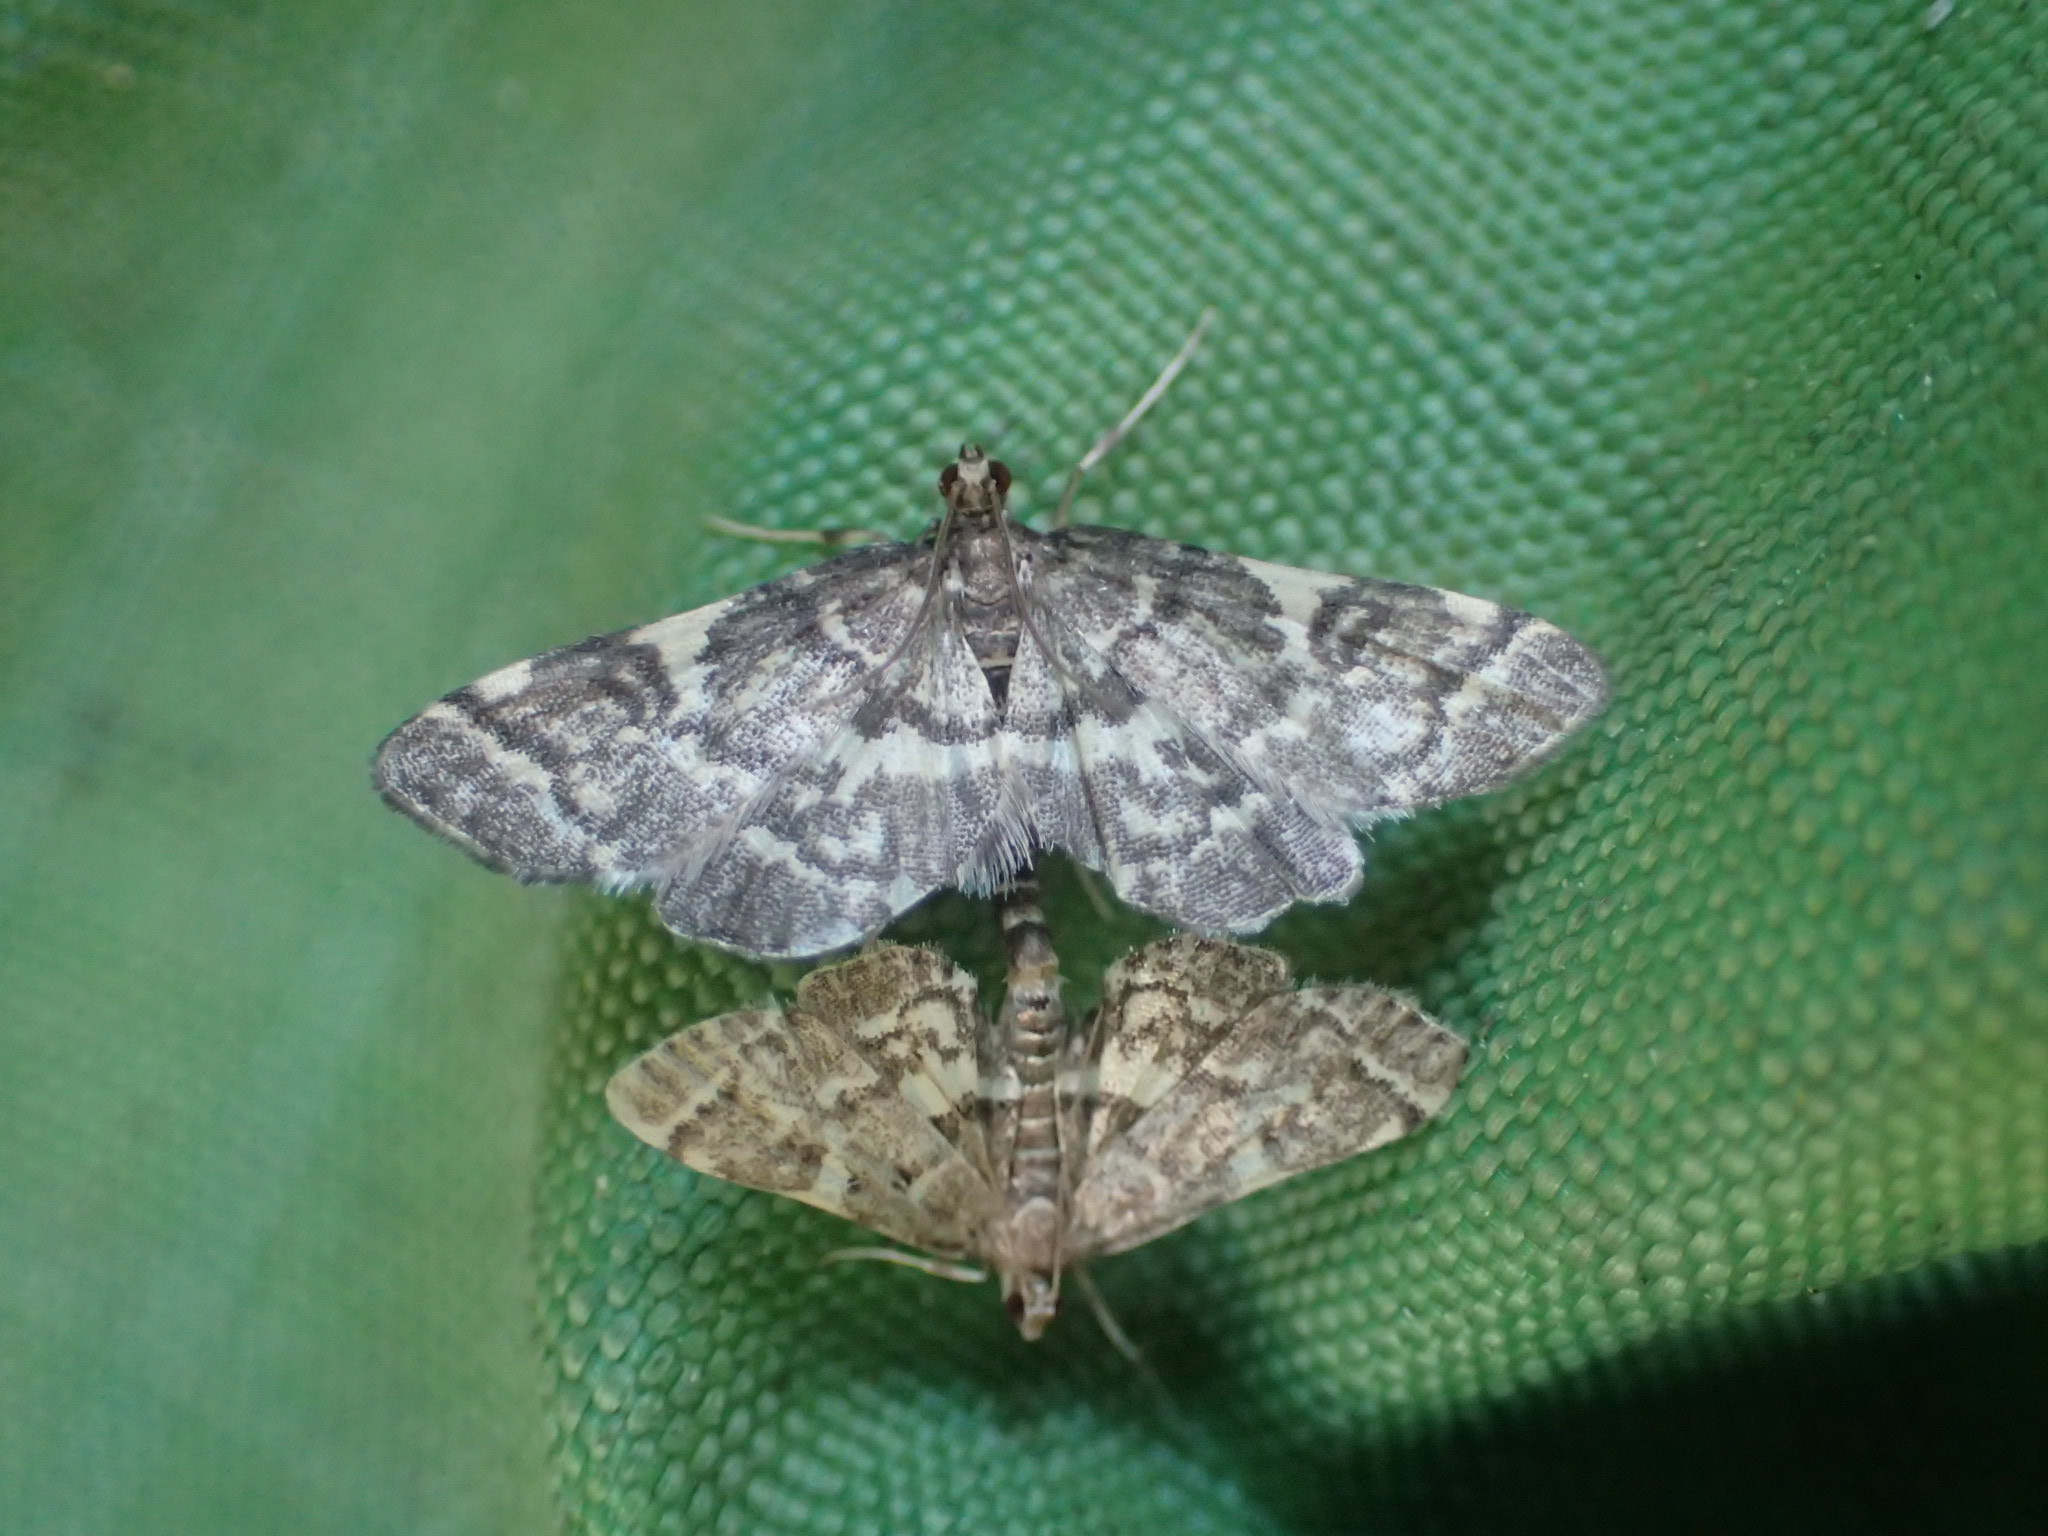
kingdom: Animalia
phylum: Arthropoda
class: Insecta
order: Lepidoptera
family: Crambidae
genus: Anageshna
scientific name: Anageshna primordialis
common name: Yellow-spotted webworm moth
